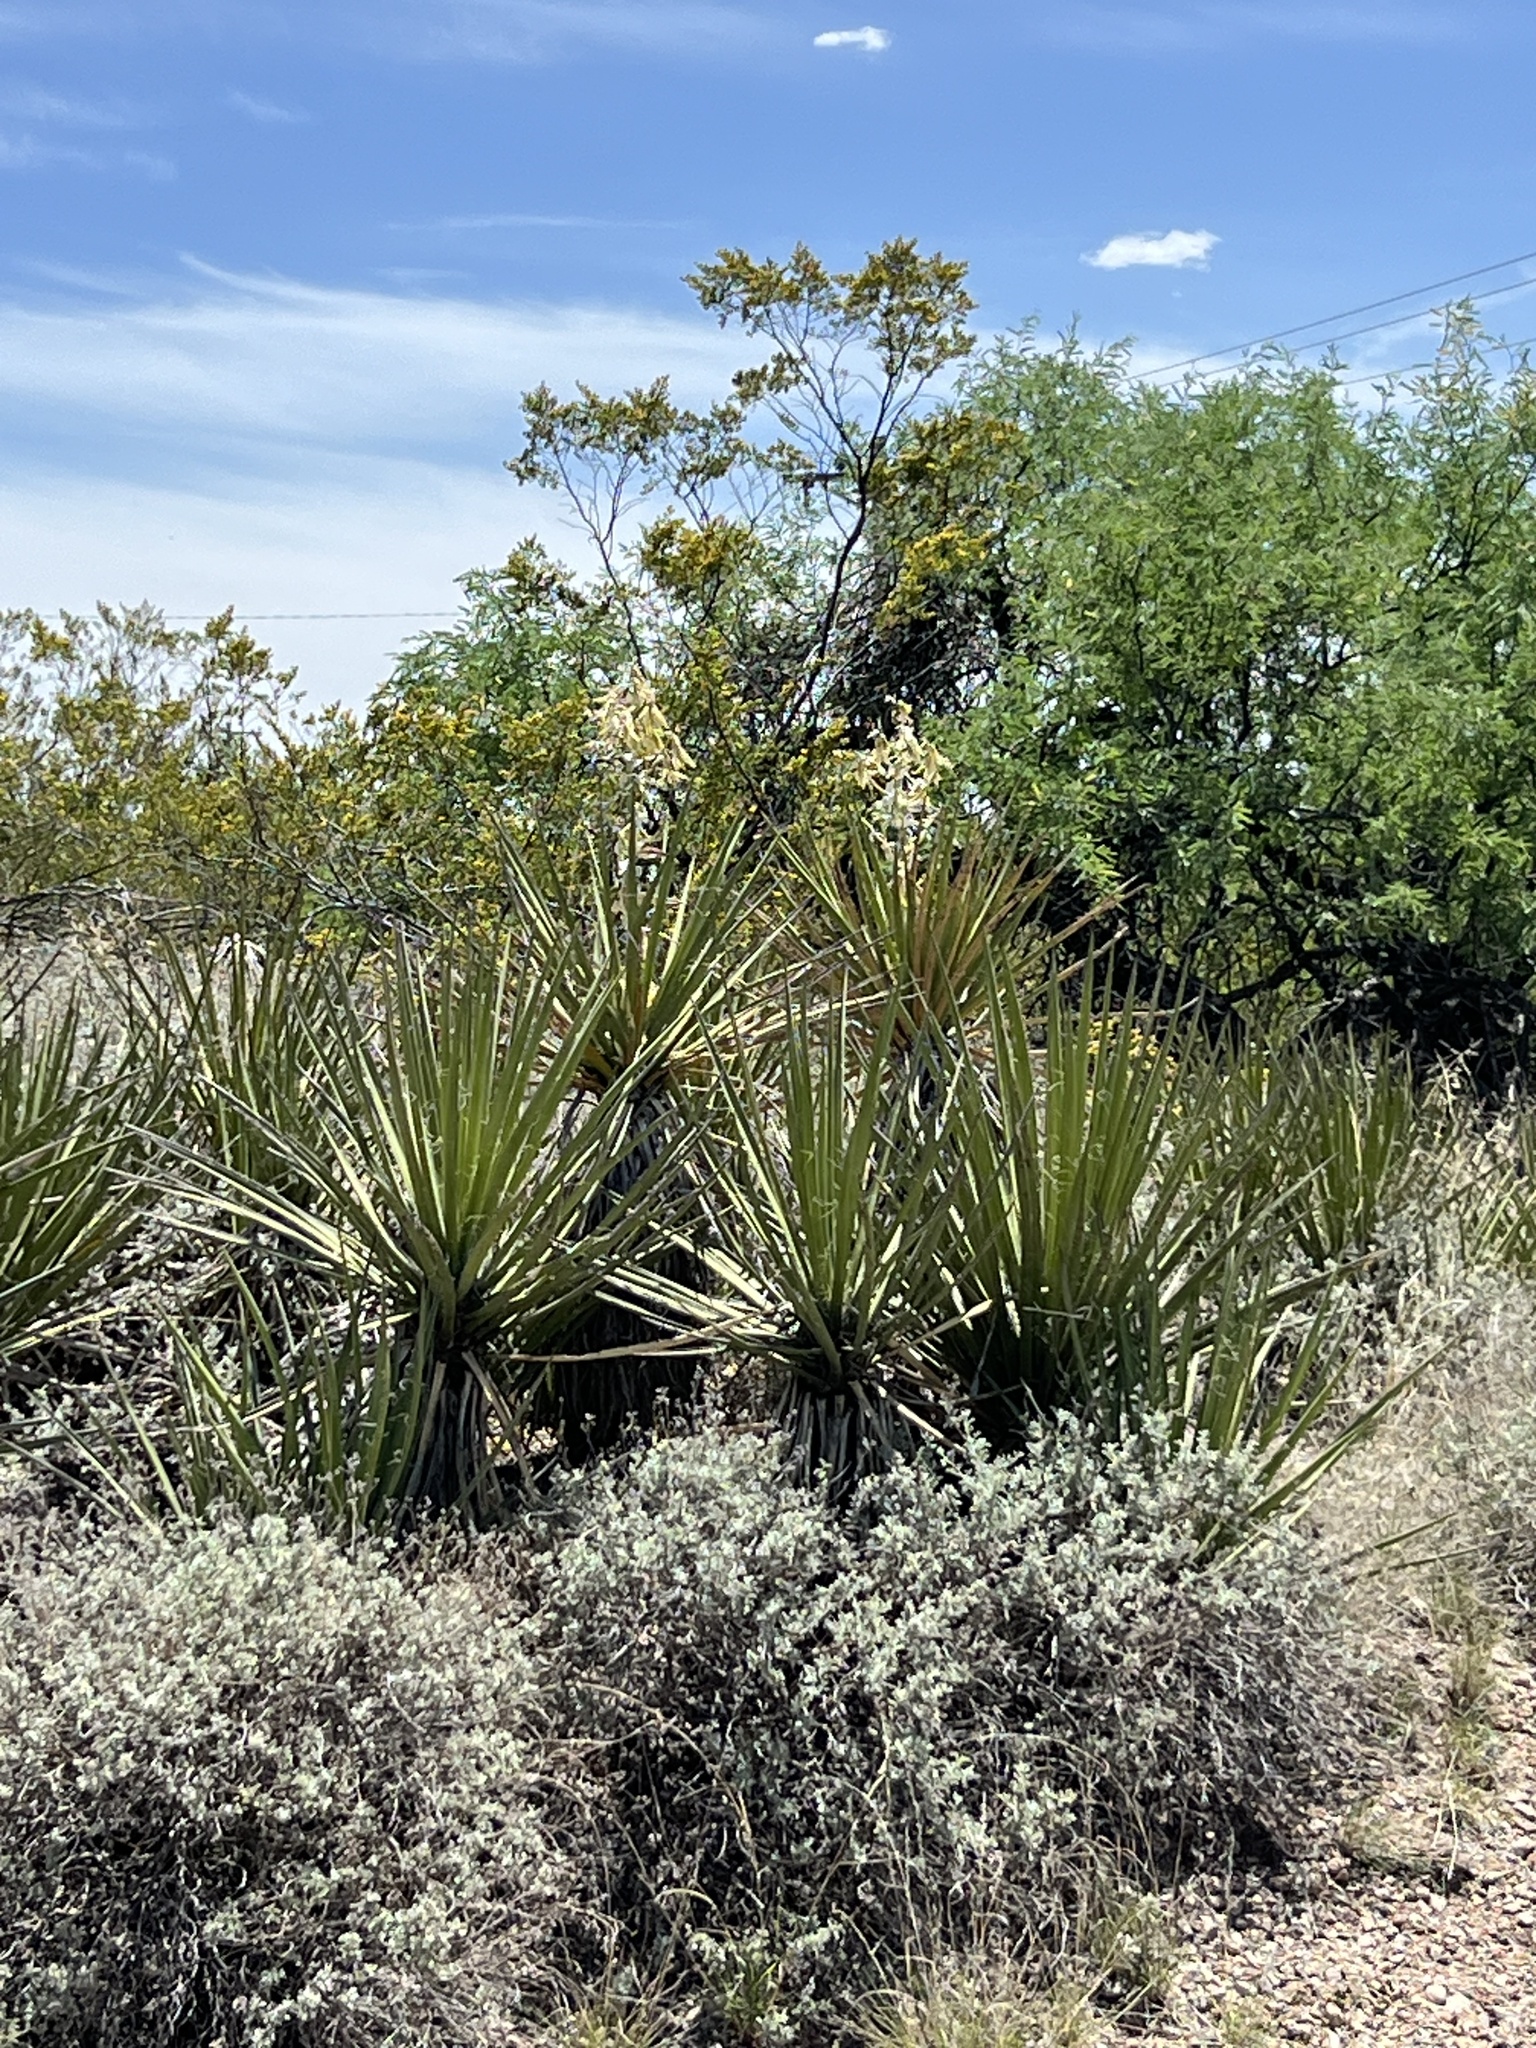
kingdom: Plantae
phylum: Tracheophyta
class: Liliopsida
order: Asparagales
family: Asparagaceae
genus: Yucca
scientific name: Yucca baccata
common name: Banana yucca
